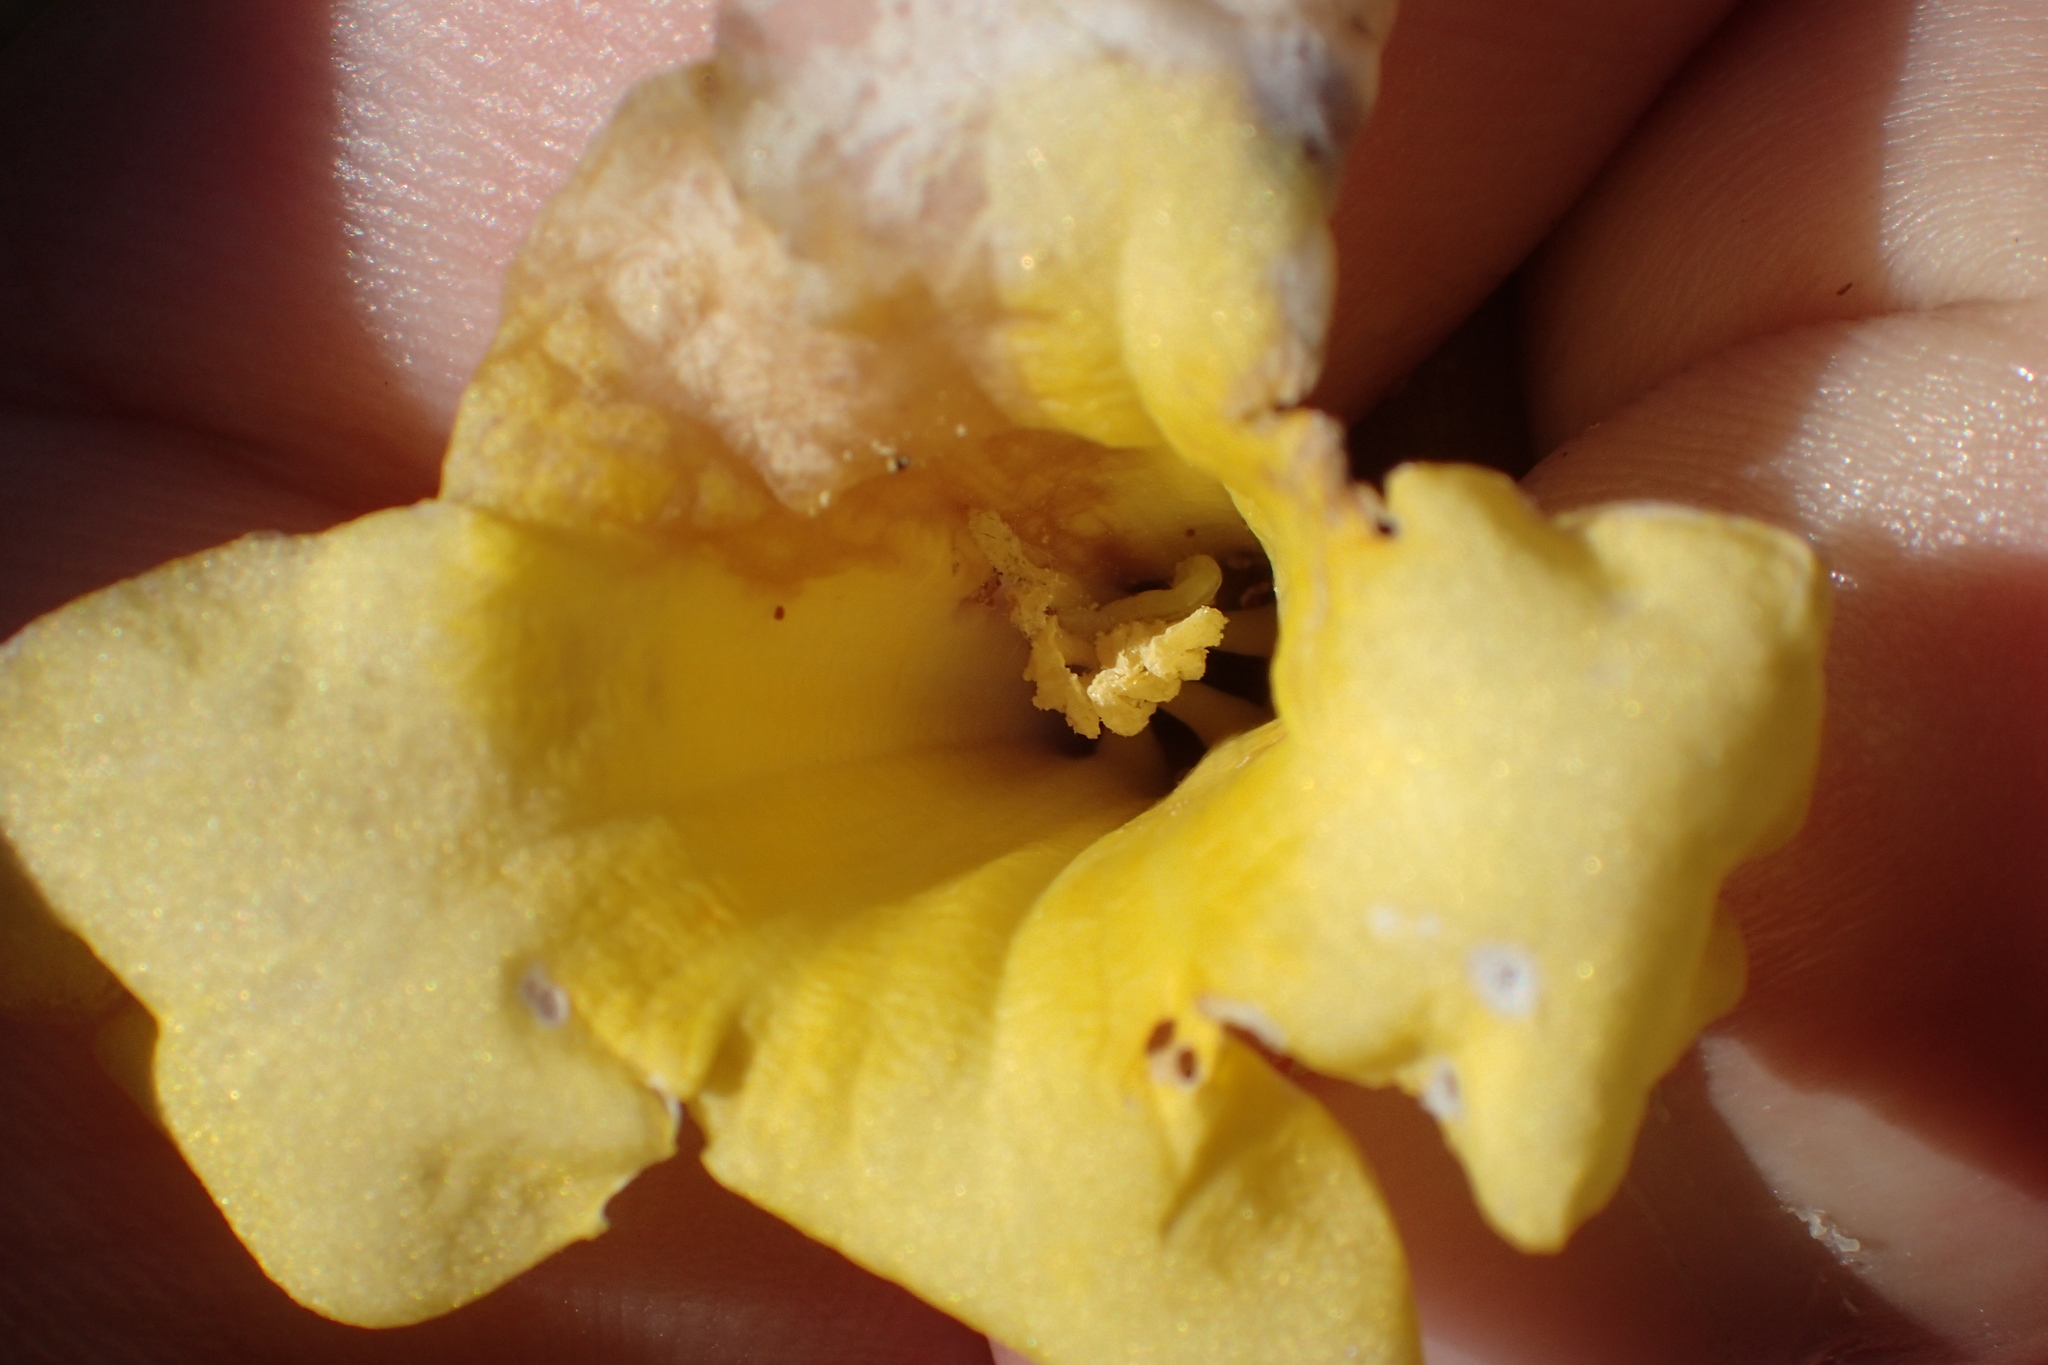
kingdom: Plantae
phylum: Tracheophyta
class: Magnoliopsida
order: Gentianales
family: Gelsemiaceae
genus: Gelsemium
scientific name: Gelsemium sempervirens
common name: Carolina-jasmine
